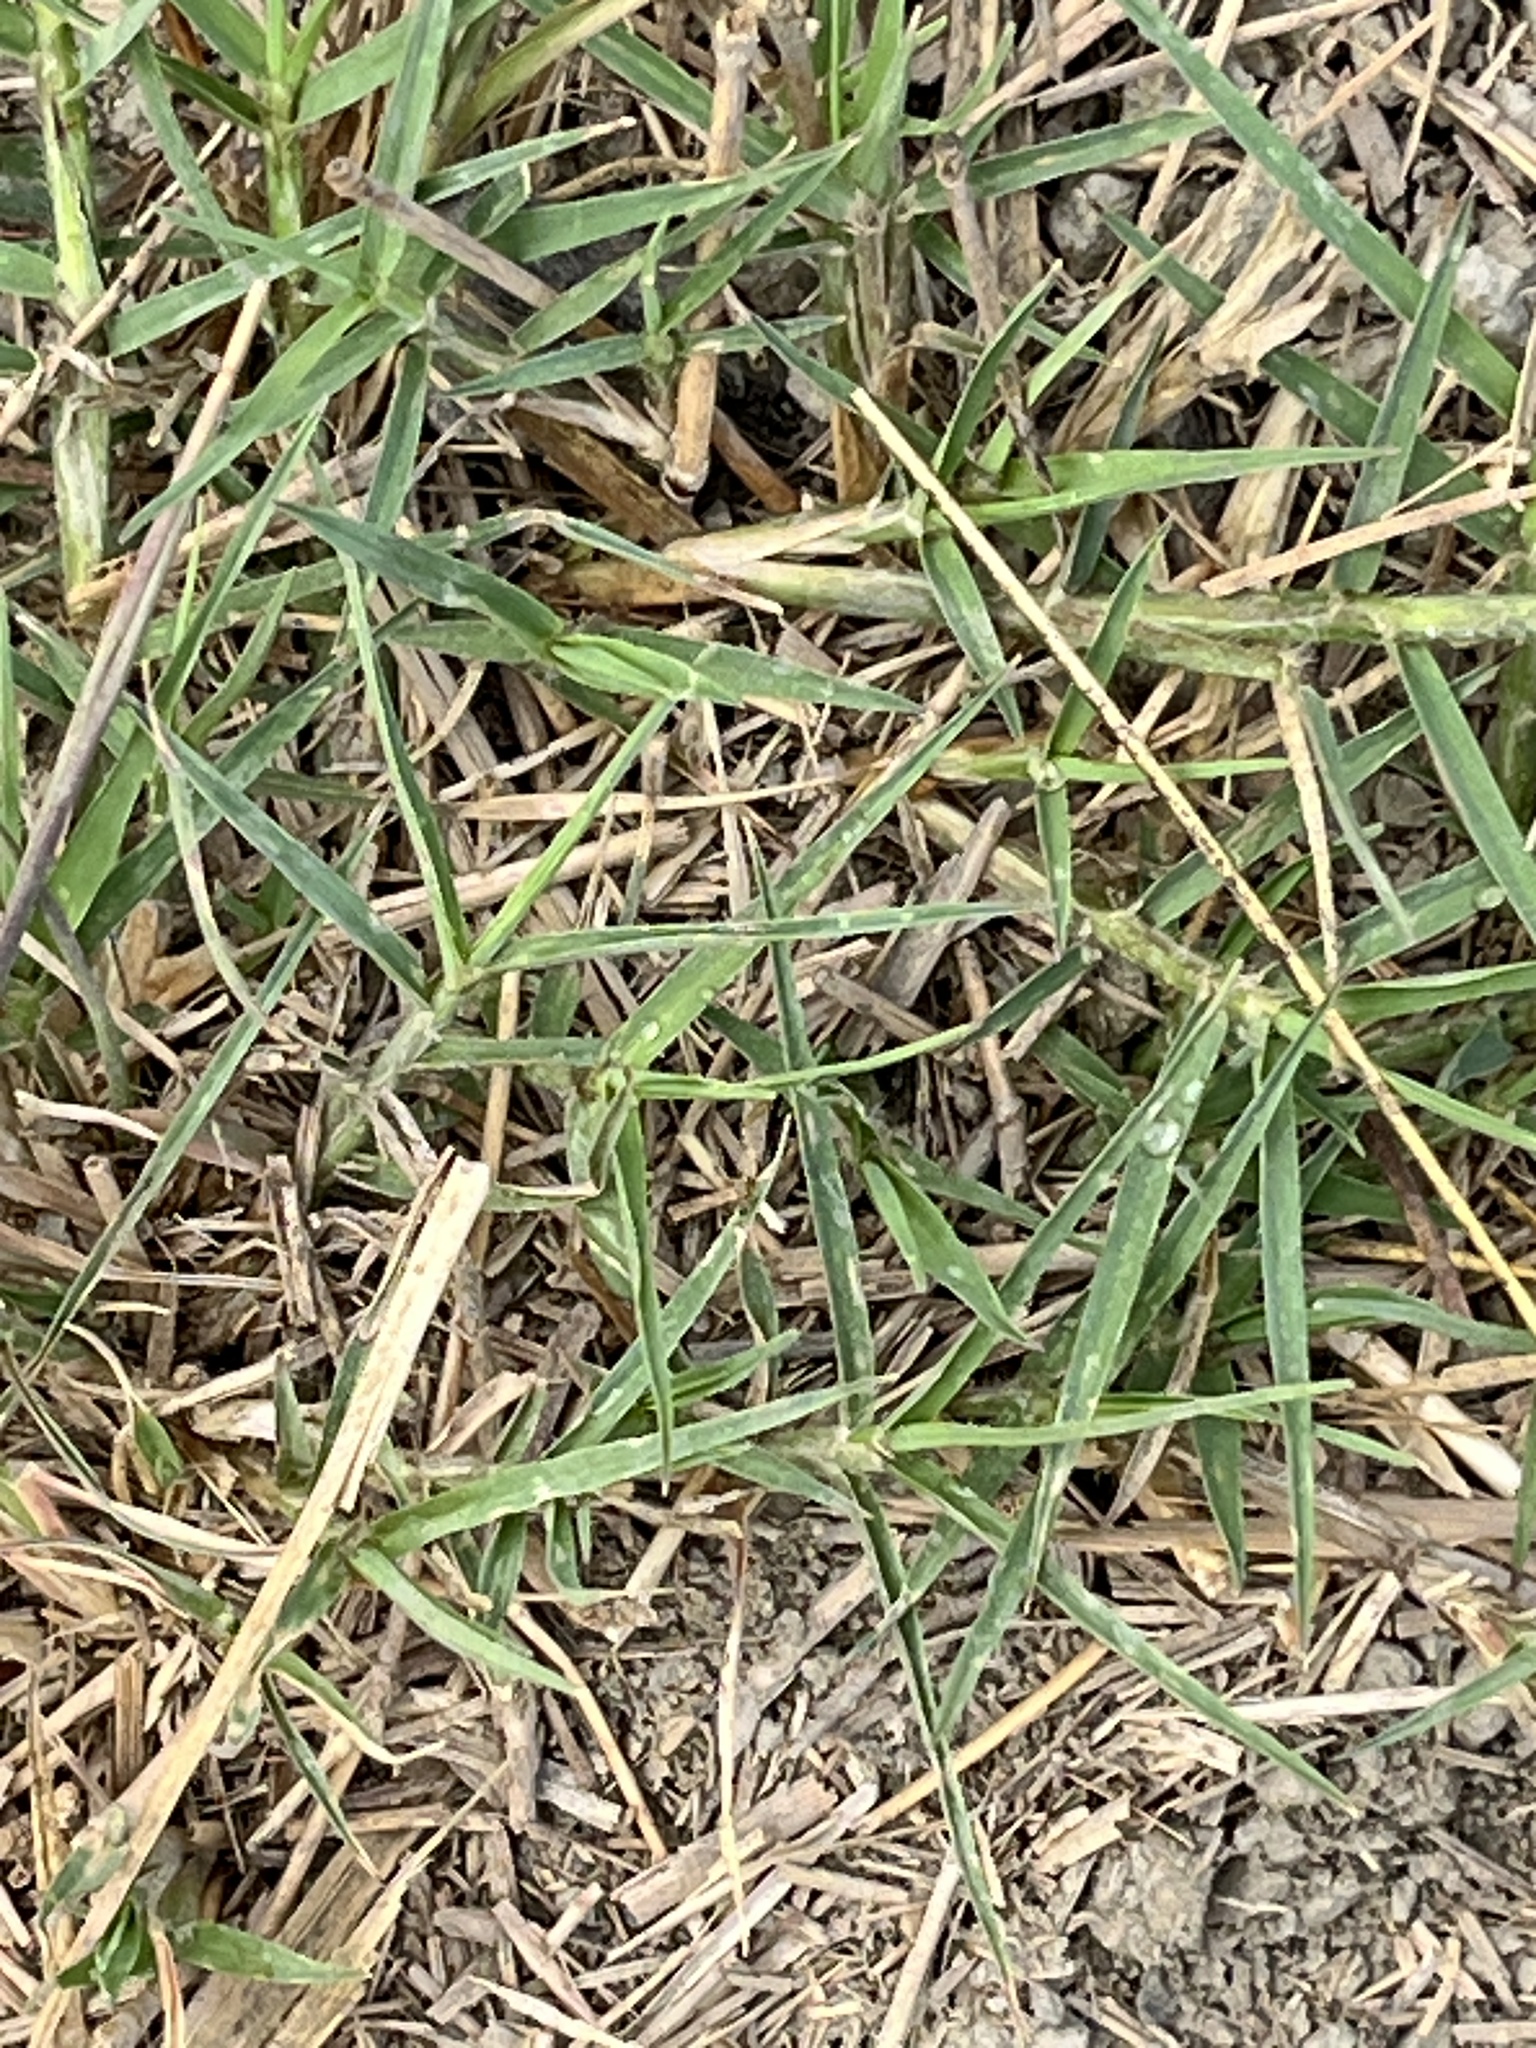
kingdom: Plantae
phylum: Tracheophyta
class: Liliopsida
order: Poales
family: Poaceae
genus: Eleusine
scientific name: Eleusine indica
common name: Yard-grass
